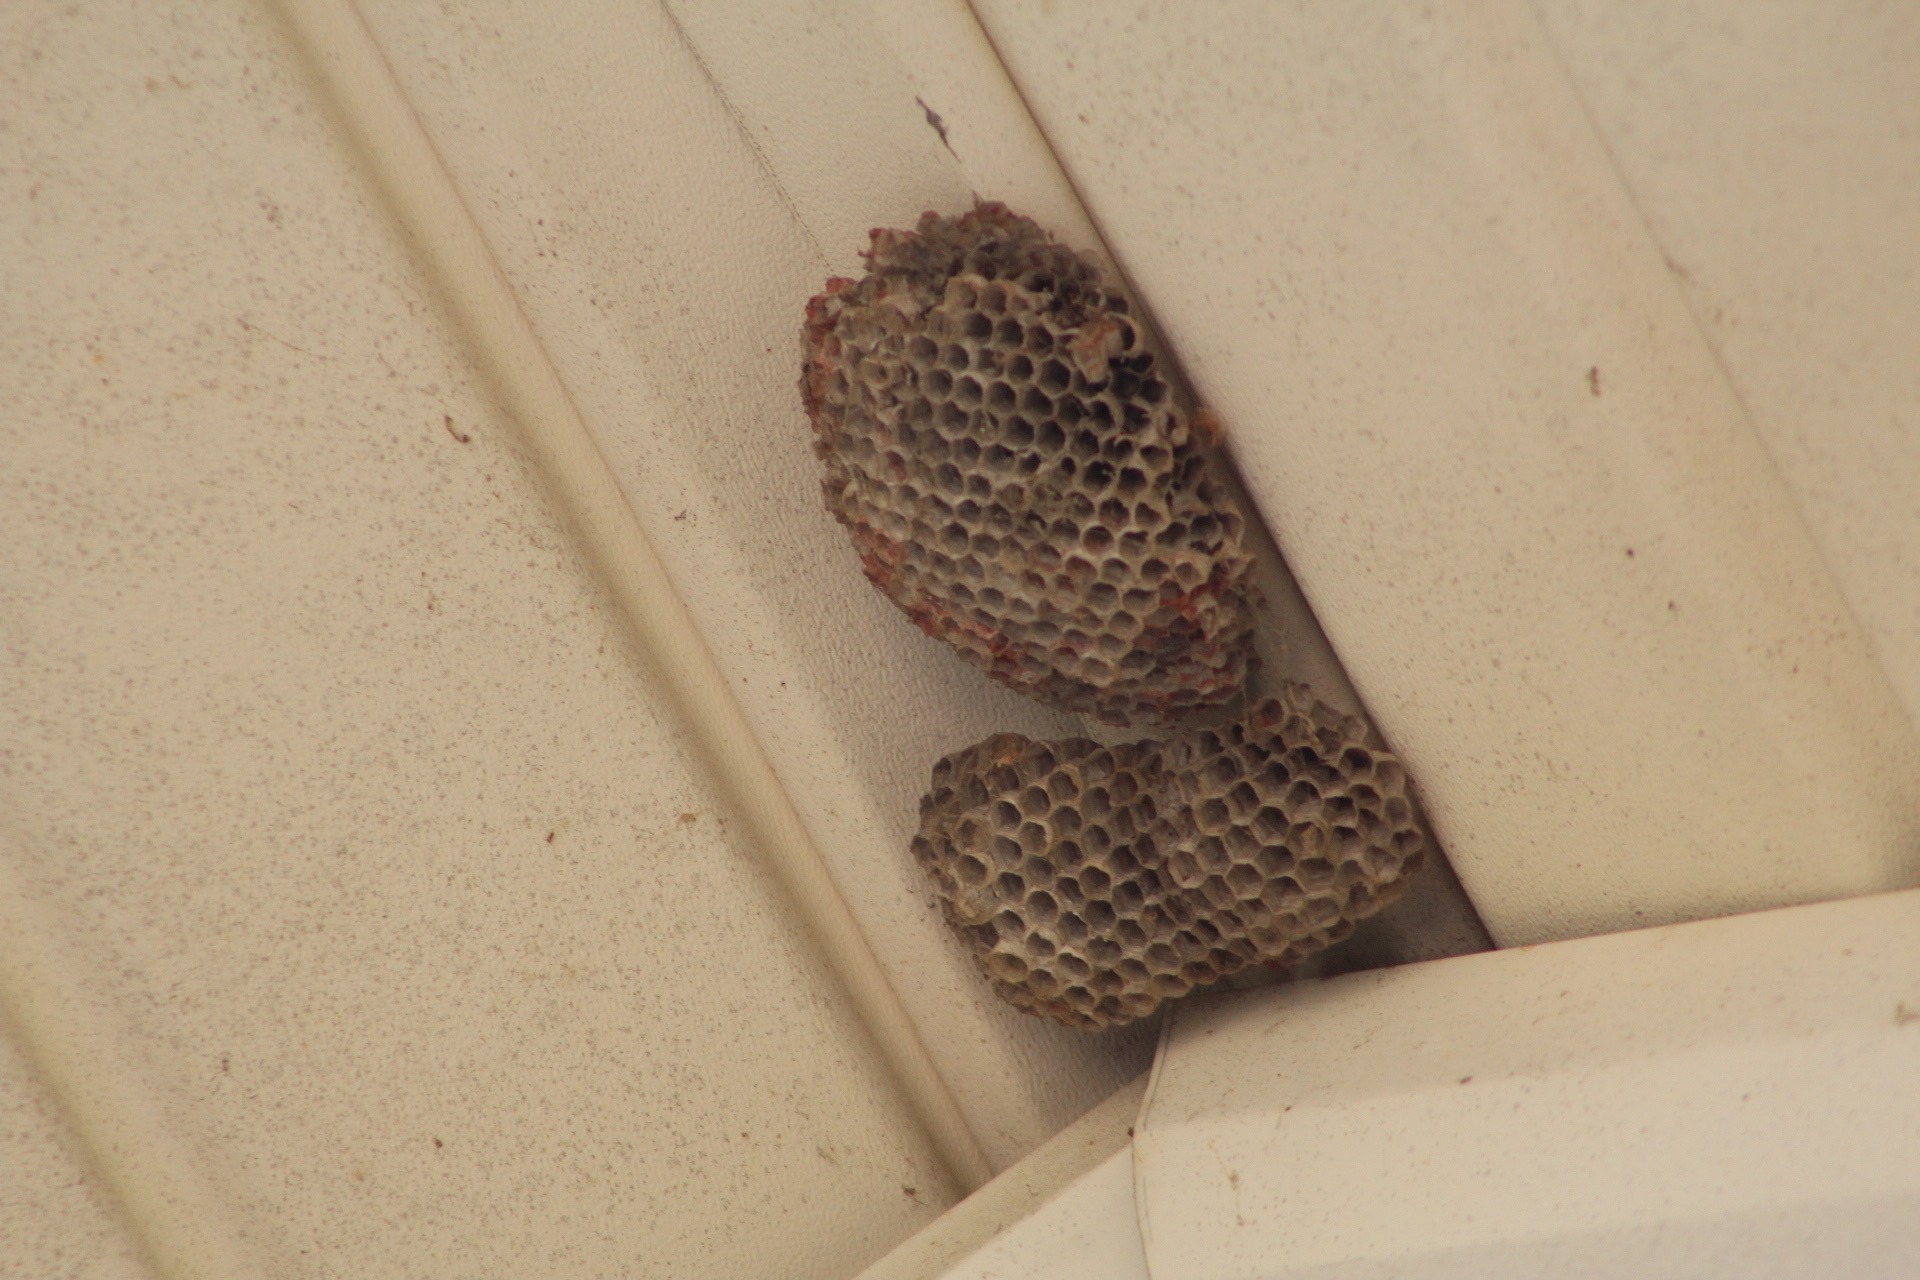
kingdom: Animalia
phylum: Arthropoda
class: Insecta
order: Hymenoptera
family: Eumenidae
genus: Polistes
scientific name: Polistes dominula
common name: Paper wasp
